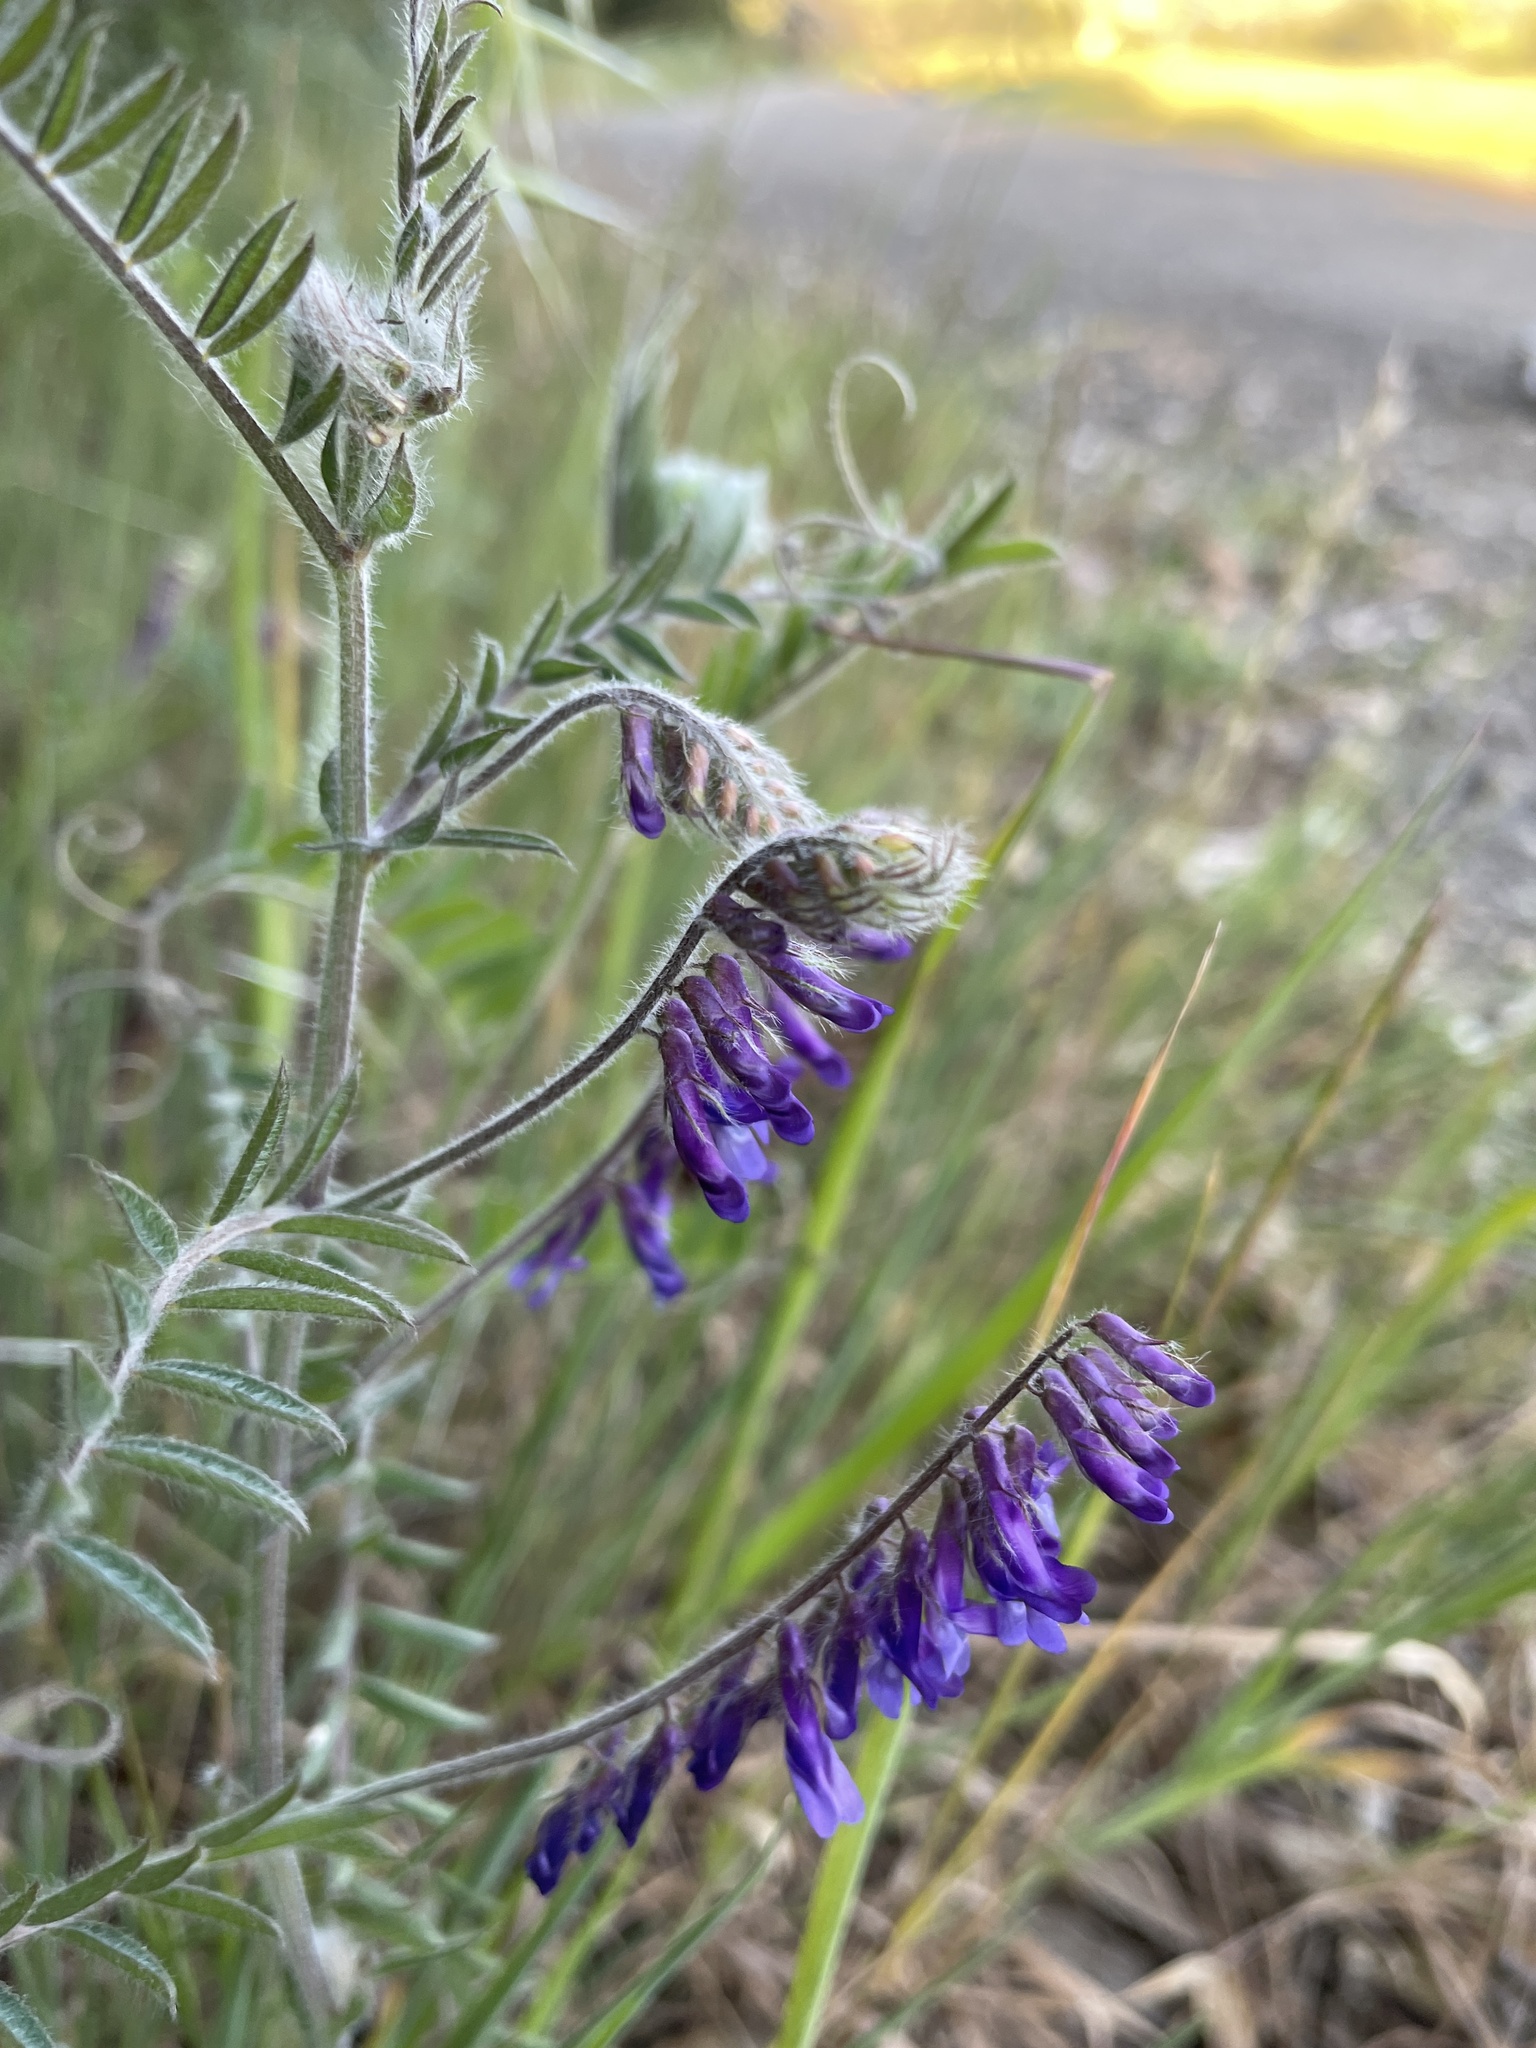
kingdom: Plantae
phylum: Tracheophyta
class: Magnoliopsida
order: Fabales
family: Fabaceae
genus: Vicia
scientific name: Vicia villosa
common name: Fodder vetch
